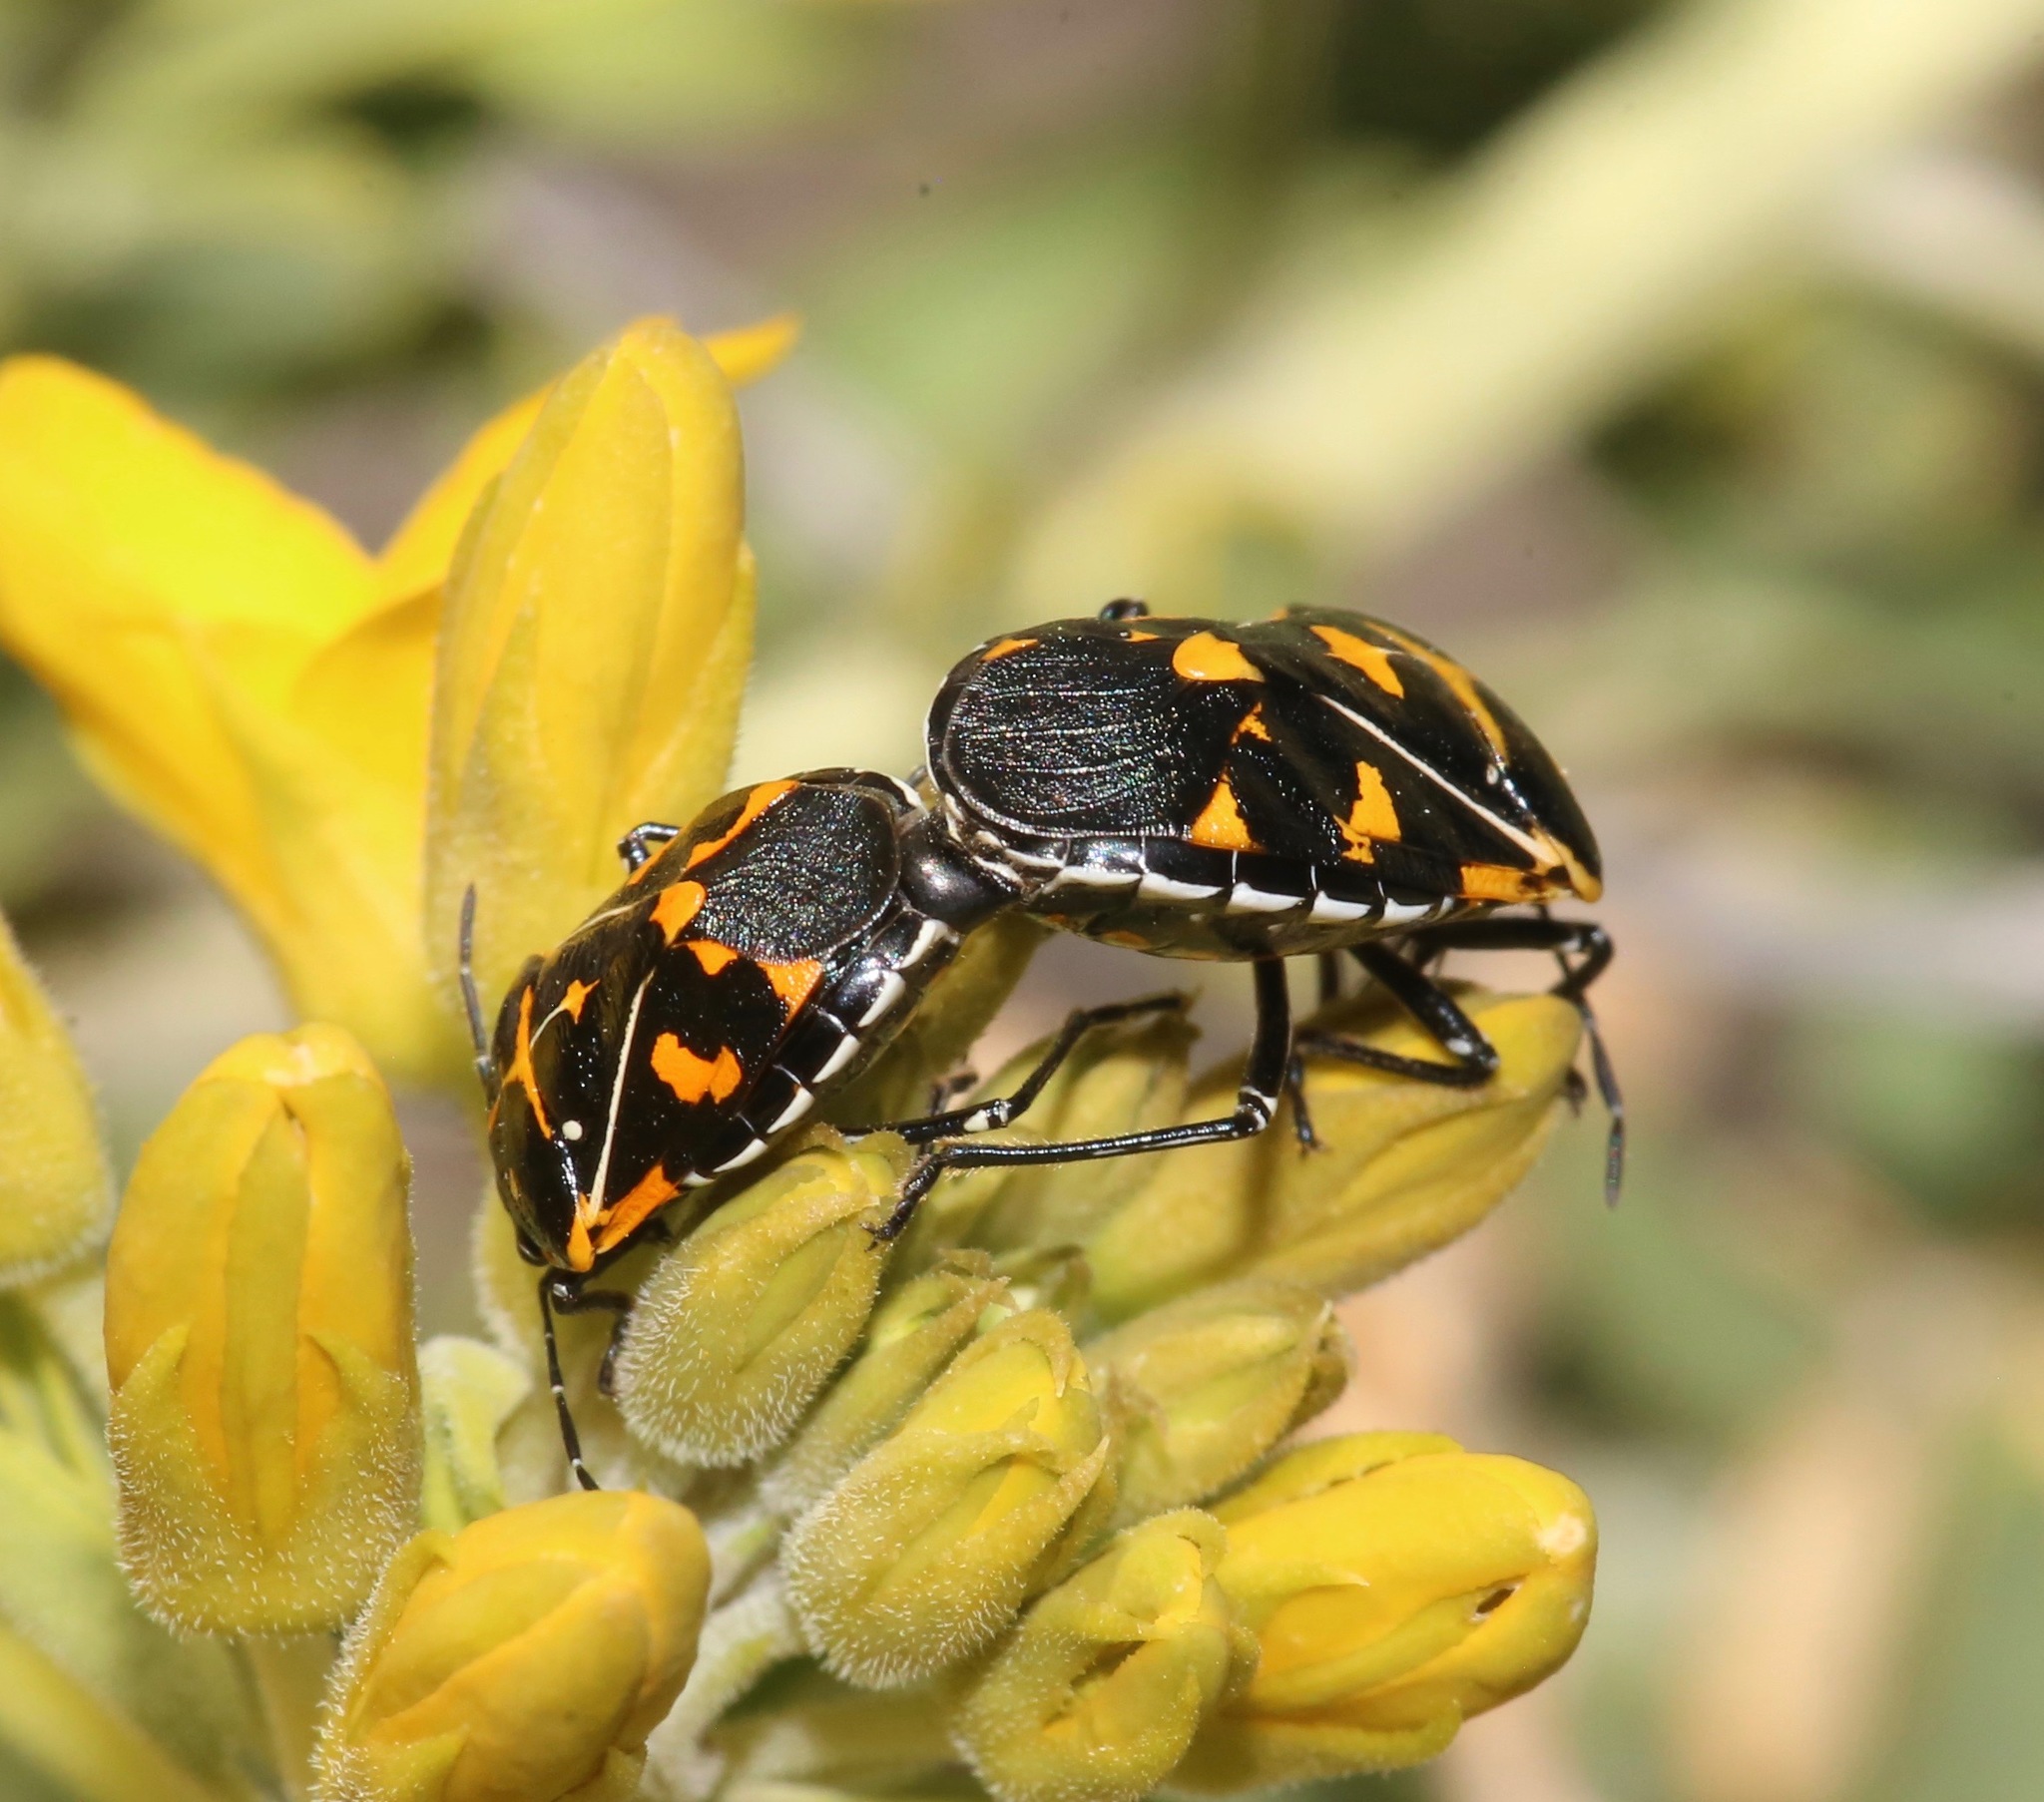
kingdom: Animalia
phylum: Arthropoda
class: Insecta
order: Hemiptera
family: Pentatomidae
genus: Murgantia
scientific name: Murgantia histrionica
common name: Harlequin bug
